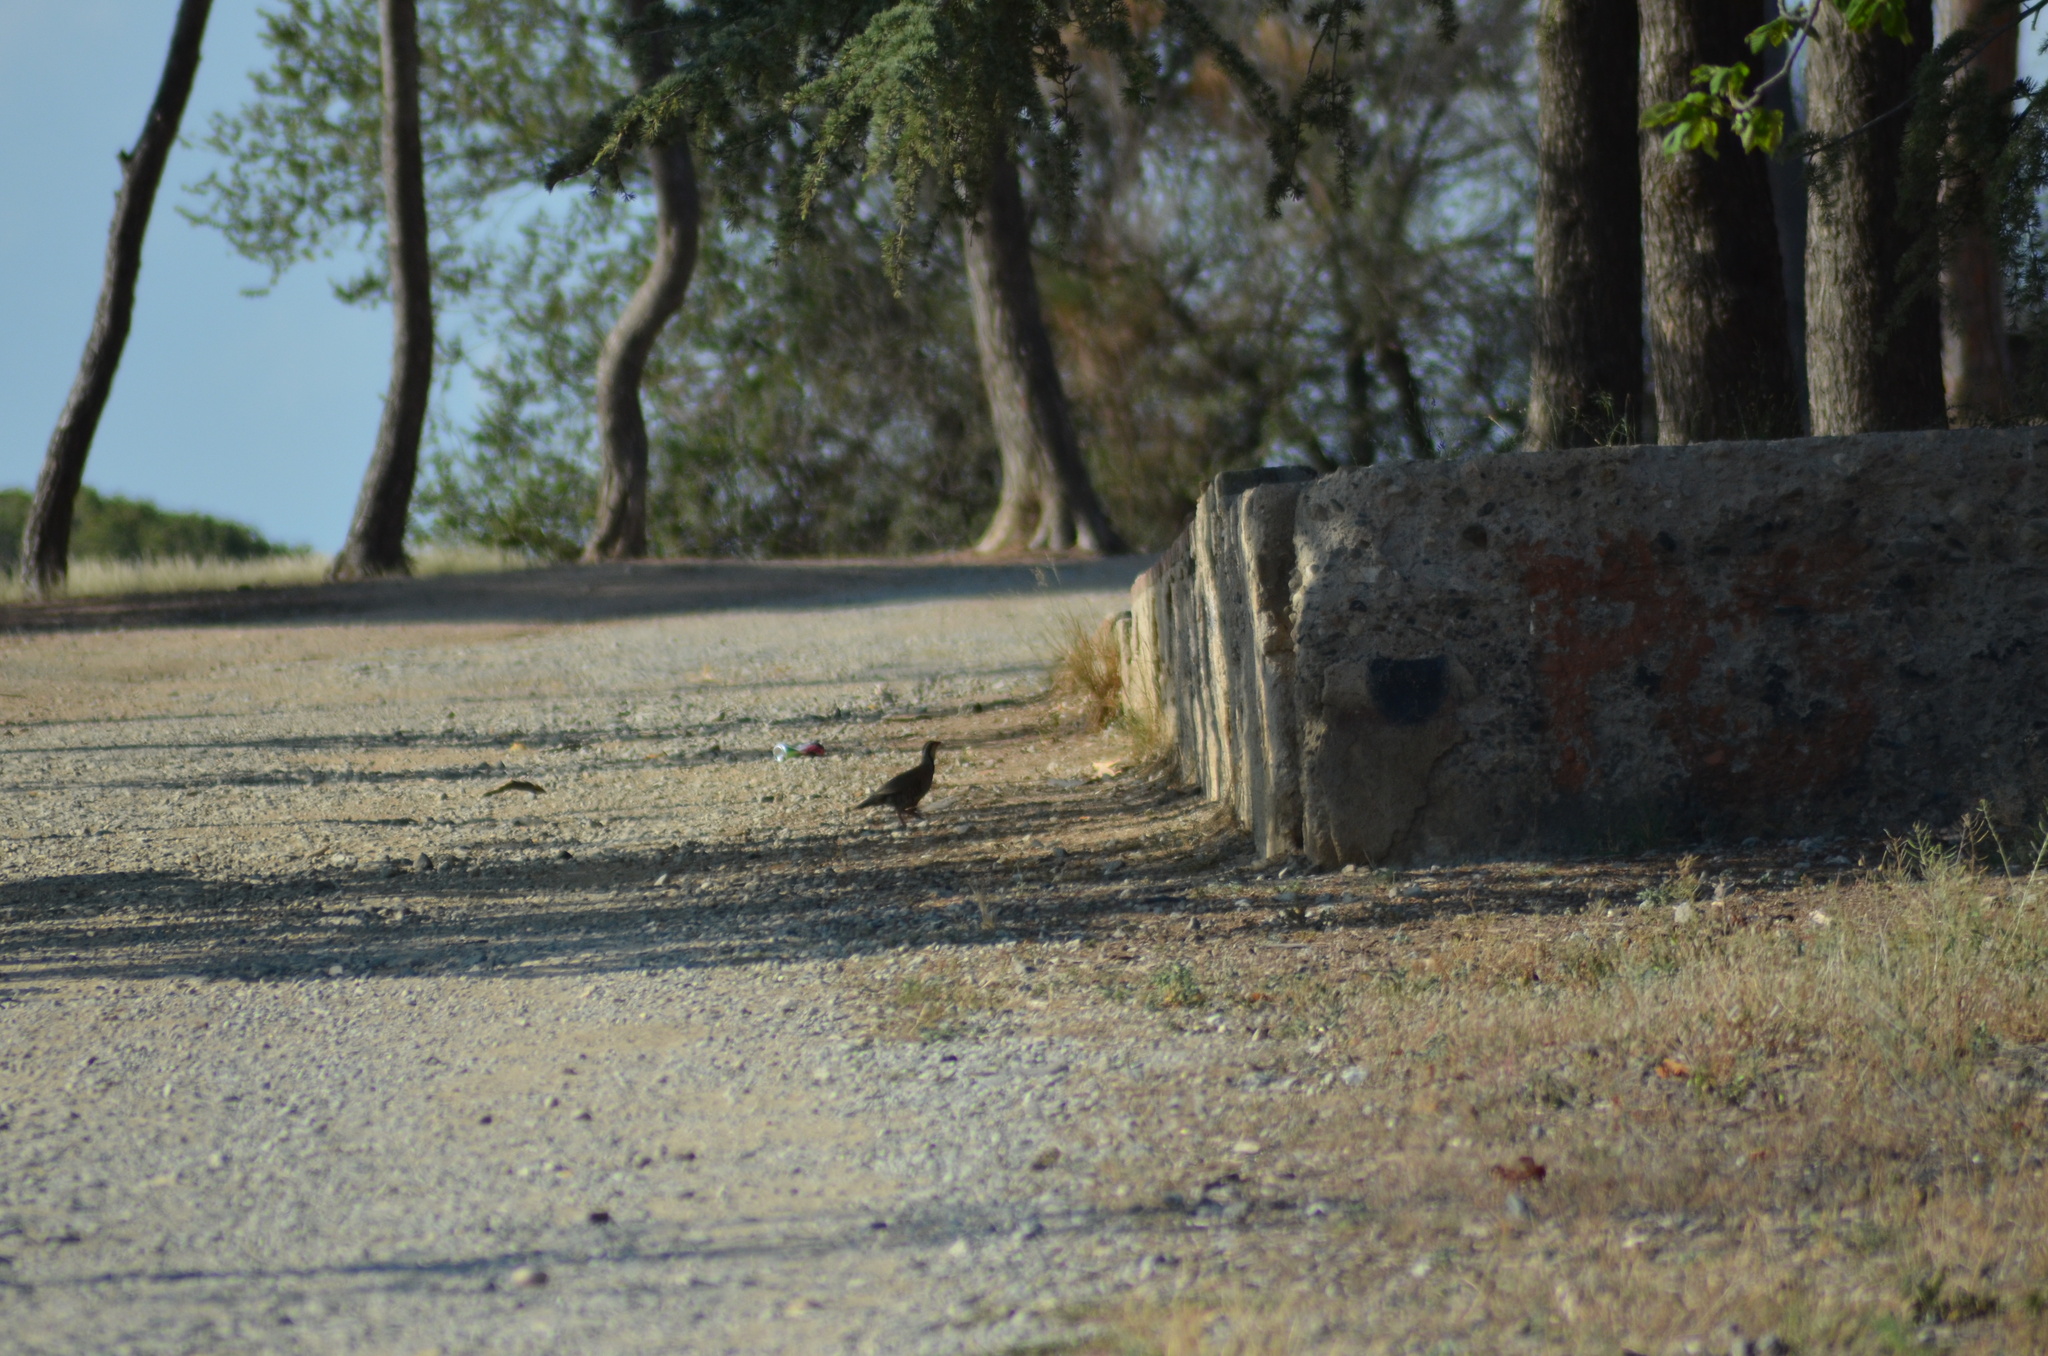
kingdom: Animalia
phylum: Chordata
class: Aves
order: Galliformes
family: Phasianidae
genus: Alectoris
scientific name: Alectoris rufa
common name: Red-legged partridge
